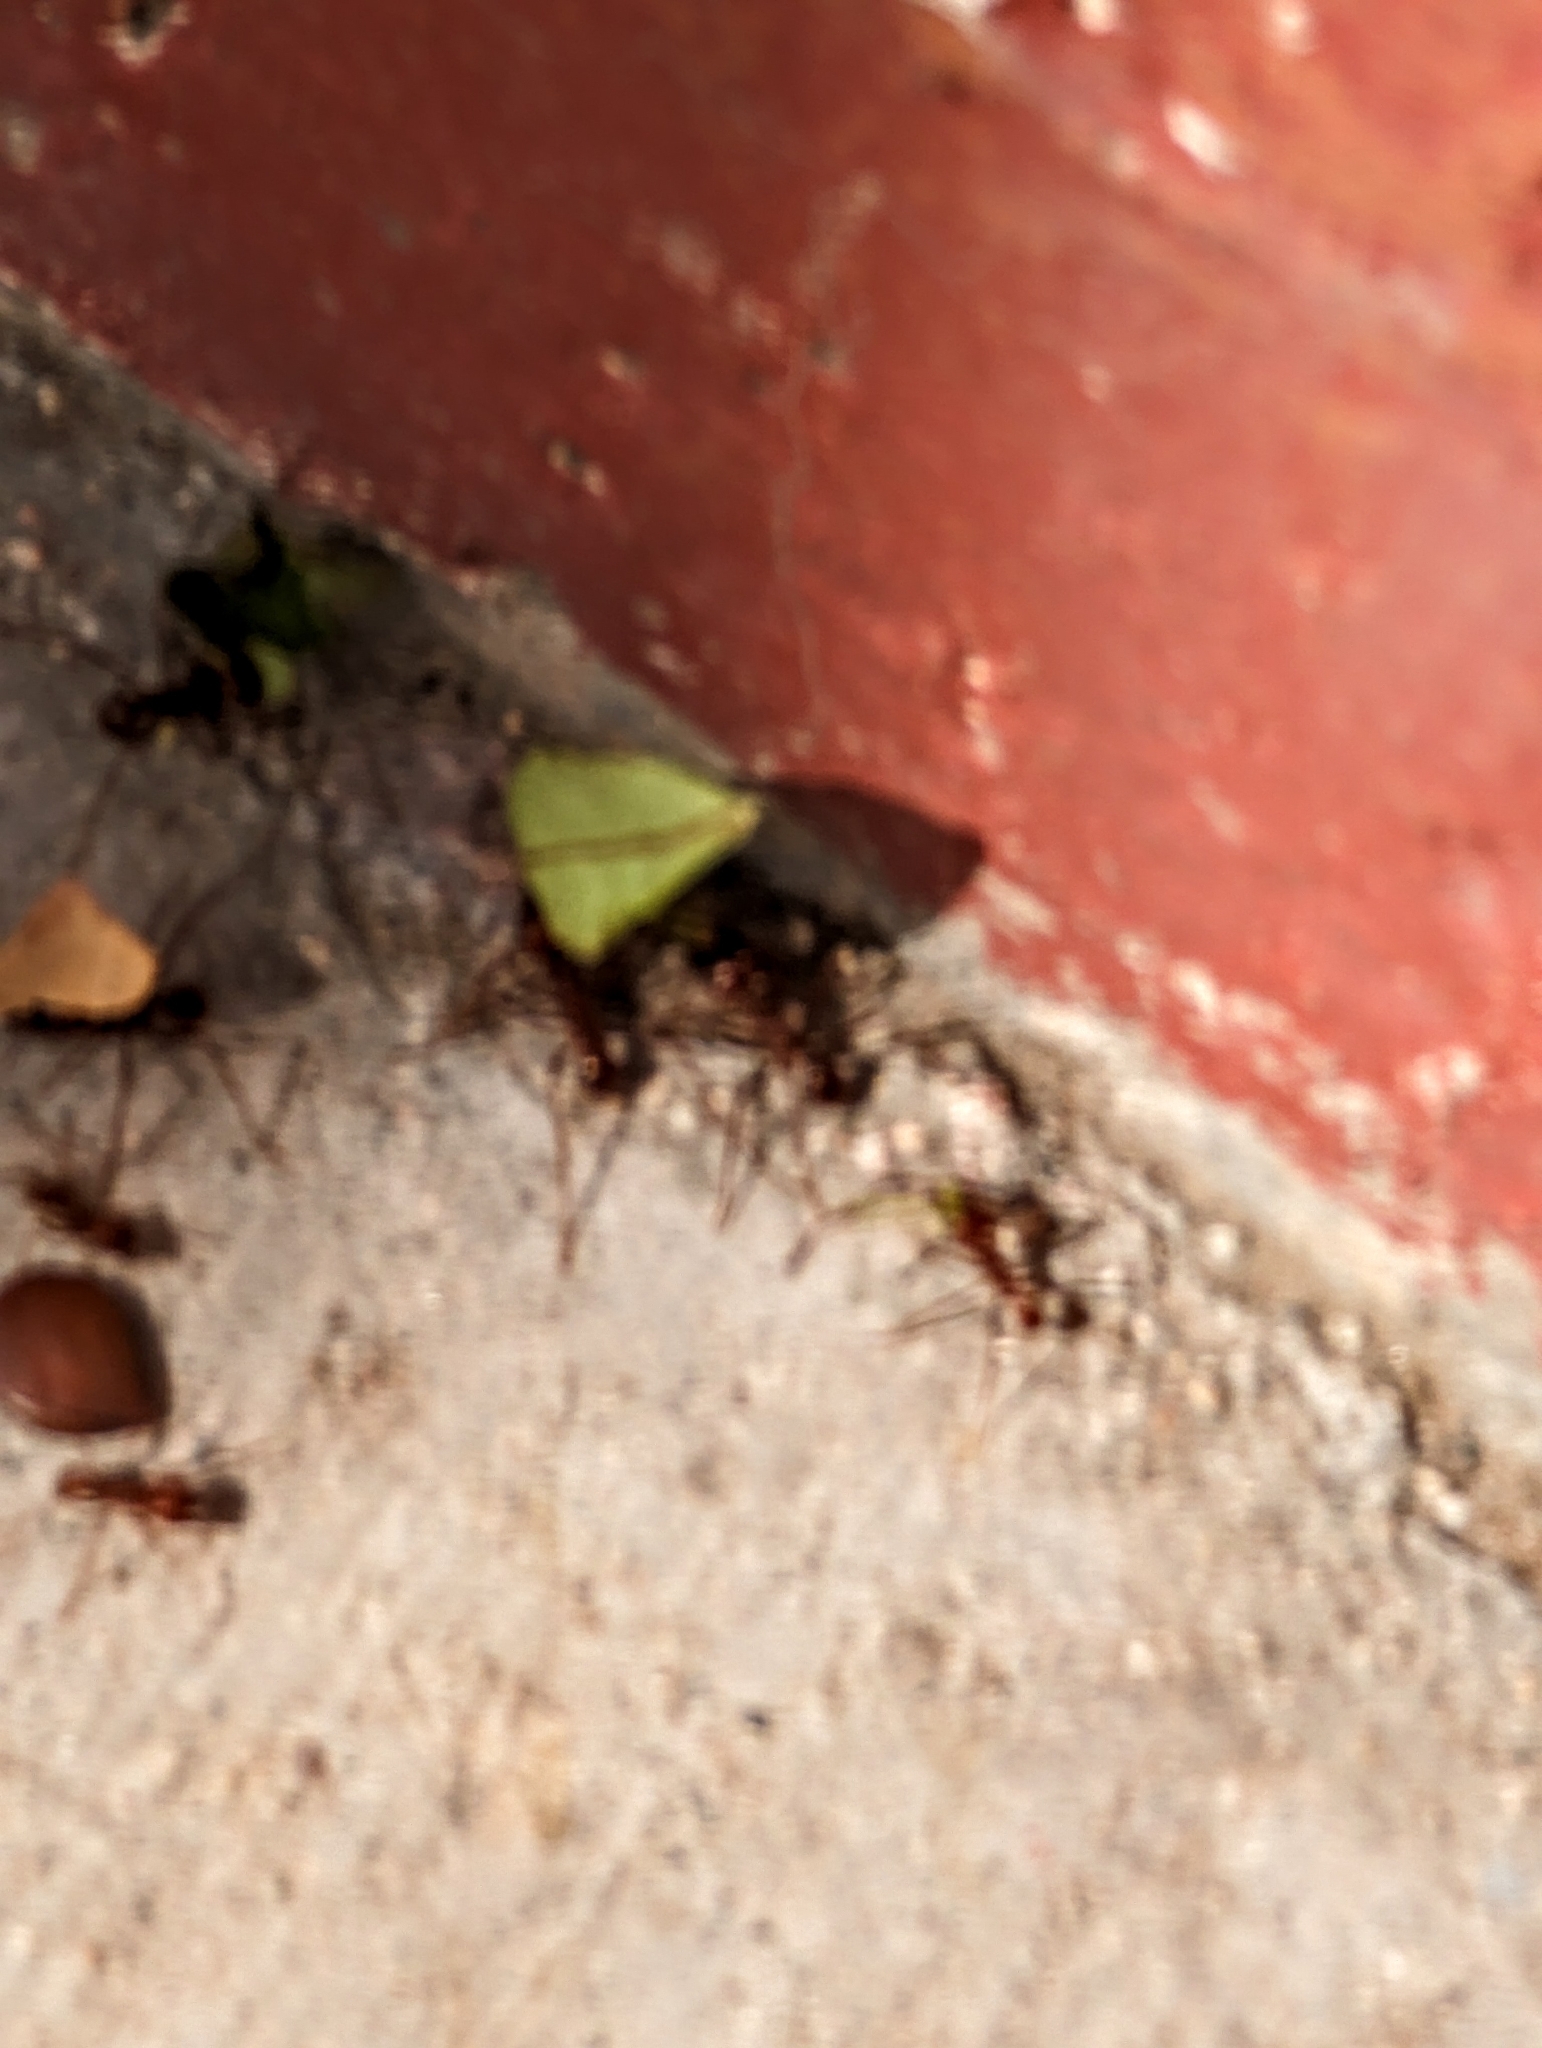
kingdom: Animalia
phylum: Arthropoda
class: Insecta
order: Hymenoptera
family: Formicidae
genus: Atta
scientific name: Atta mexicana
